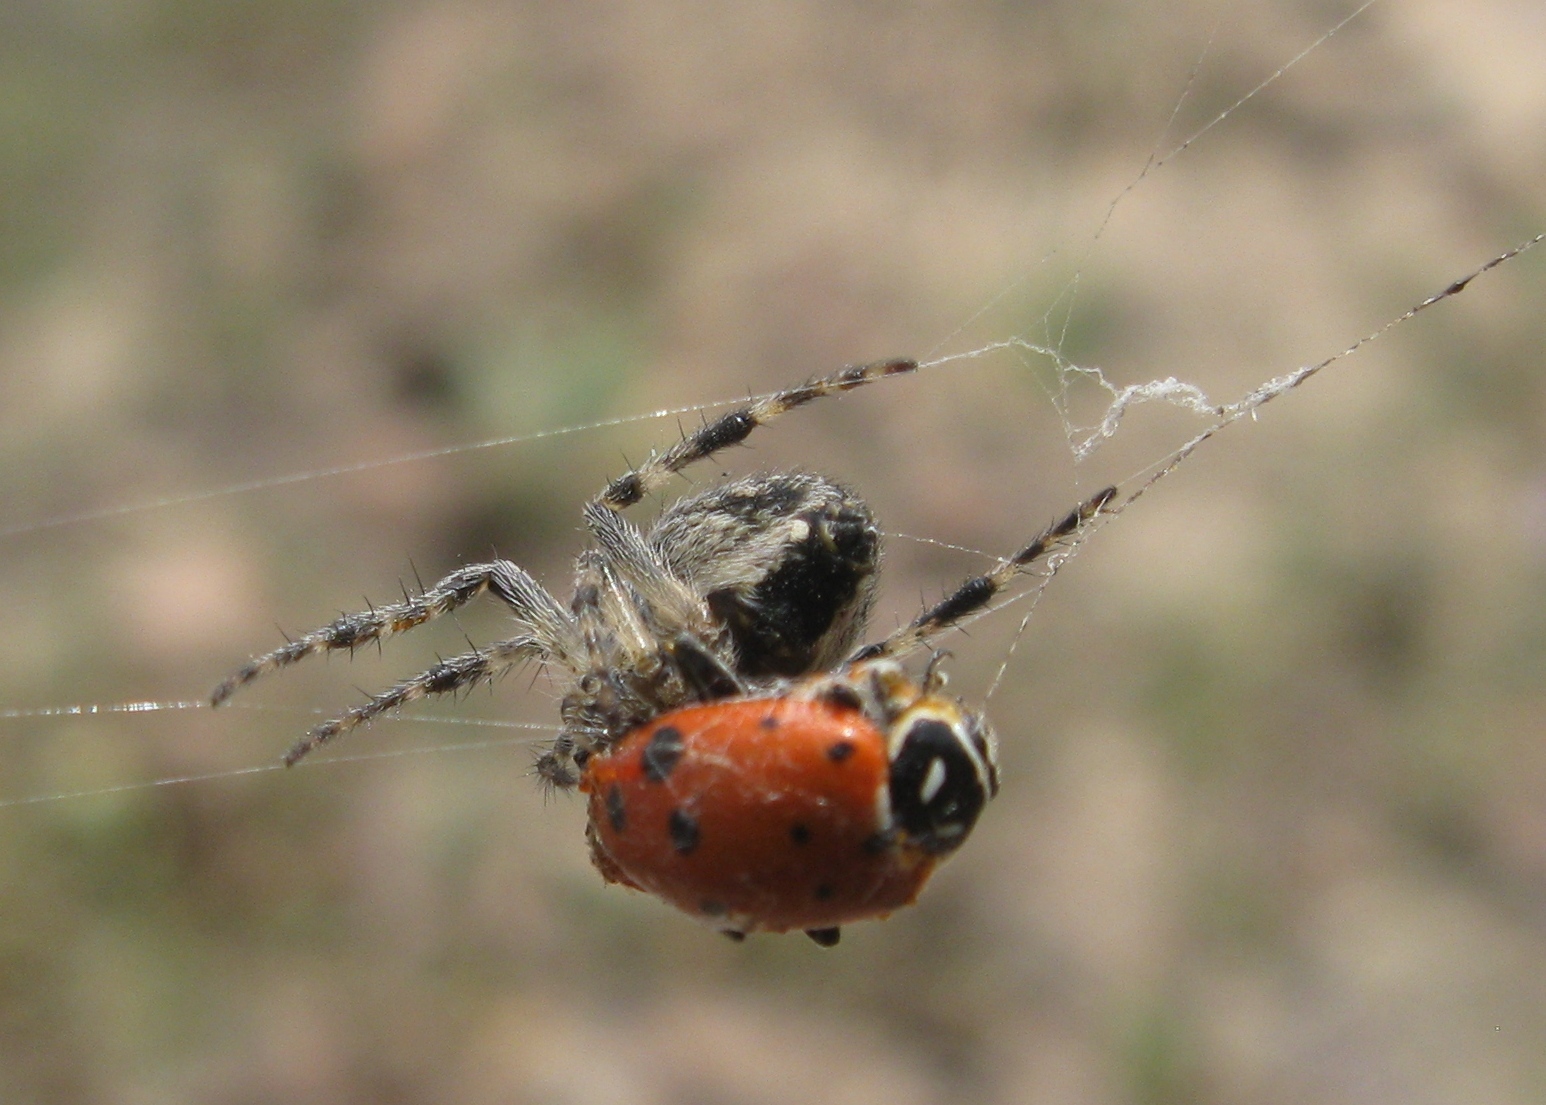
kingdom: Animalia
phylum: Arthropoda
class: Insecta
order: Coleoptera
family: Coccinellidae
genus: Hippodamia
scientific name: Hippodamia convergens
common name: Convergent lady beetle
